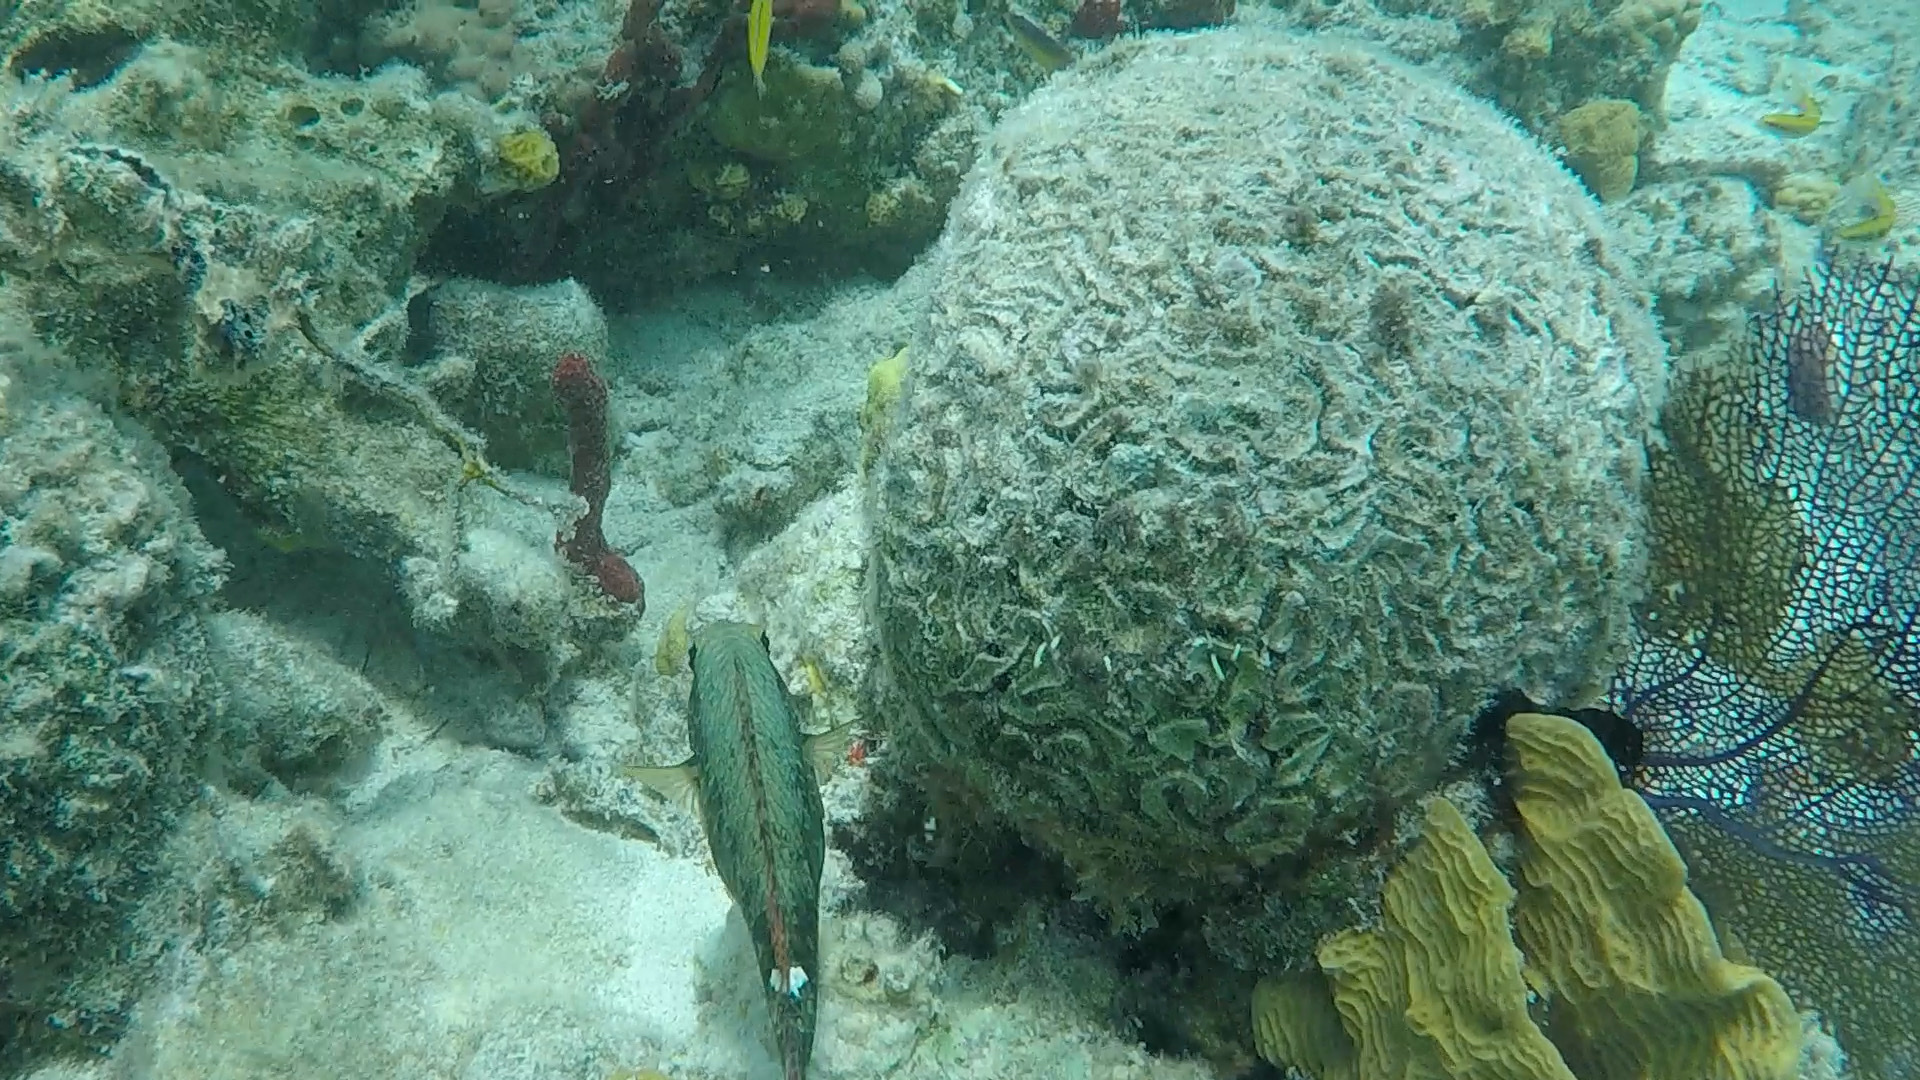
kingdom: Animalia
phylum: Chordata
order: Perciformes
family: Scaridae
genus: Sparisoma
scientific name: Sparisoma aurofrenatum
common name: Redband parrotfish
